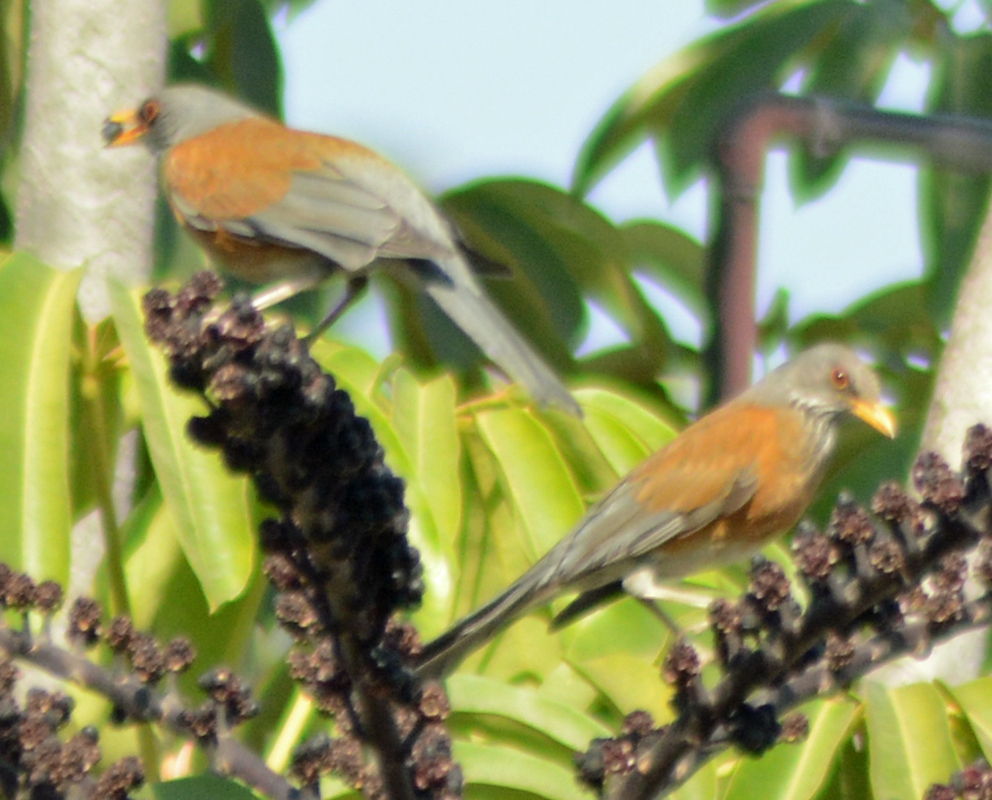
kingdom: Animalia
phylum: Chordata
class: Aves
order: Passeriformes
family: Turdidae
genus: Turdus
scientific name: Turdus rufopalliatus
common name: Rufous-backed robin
